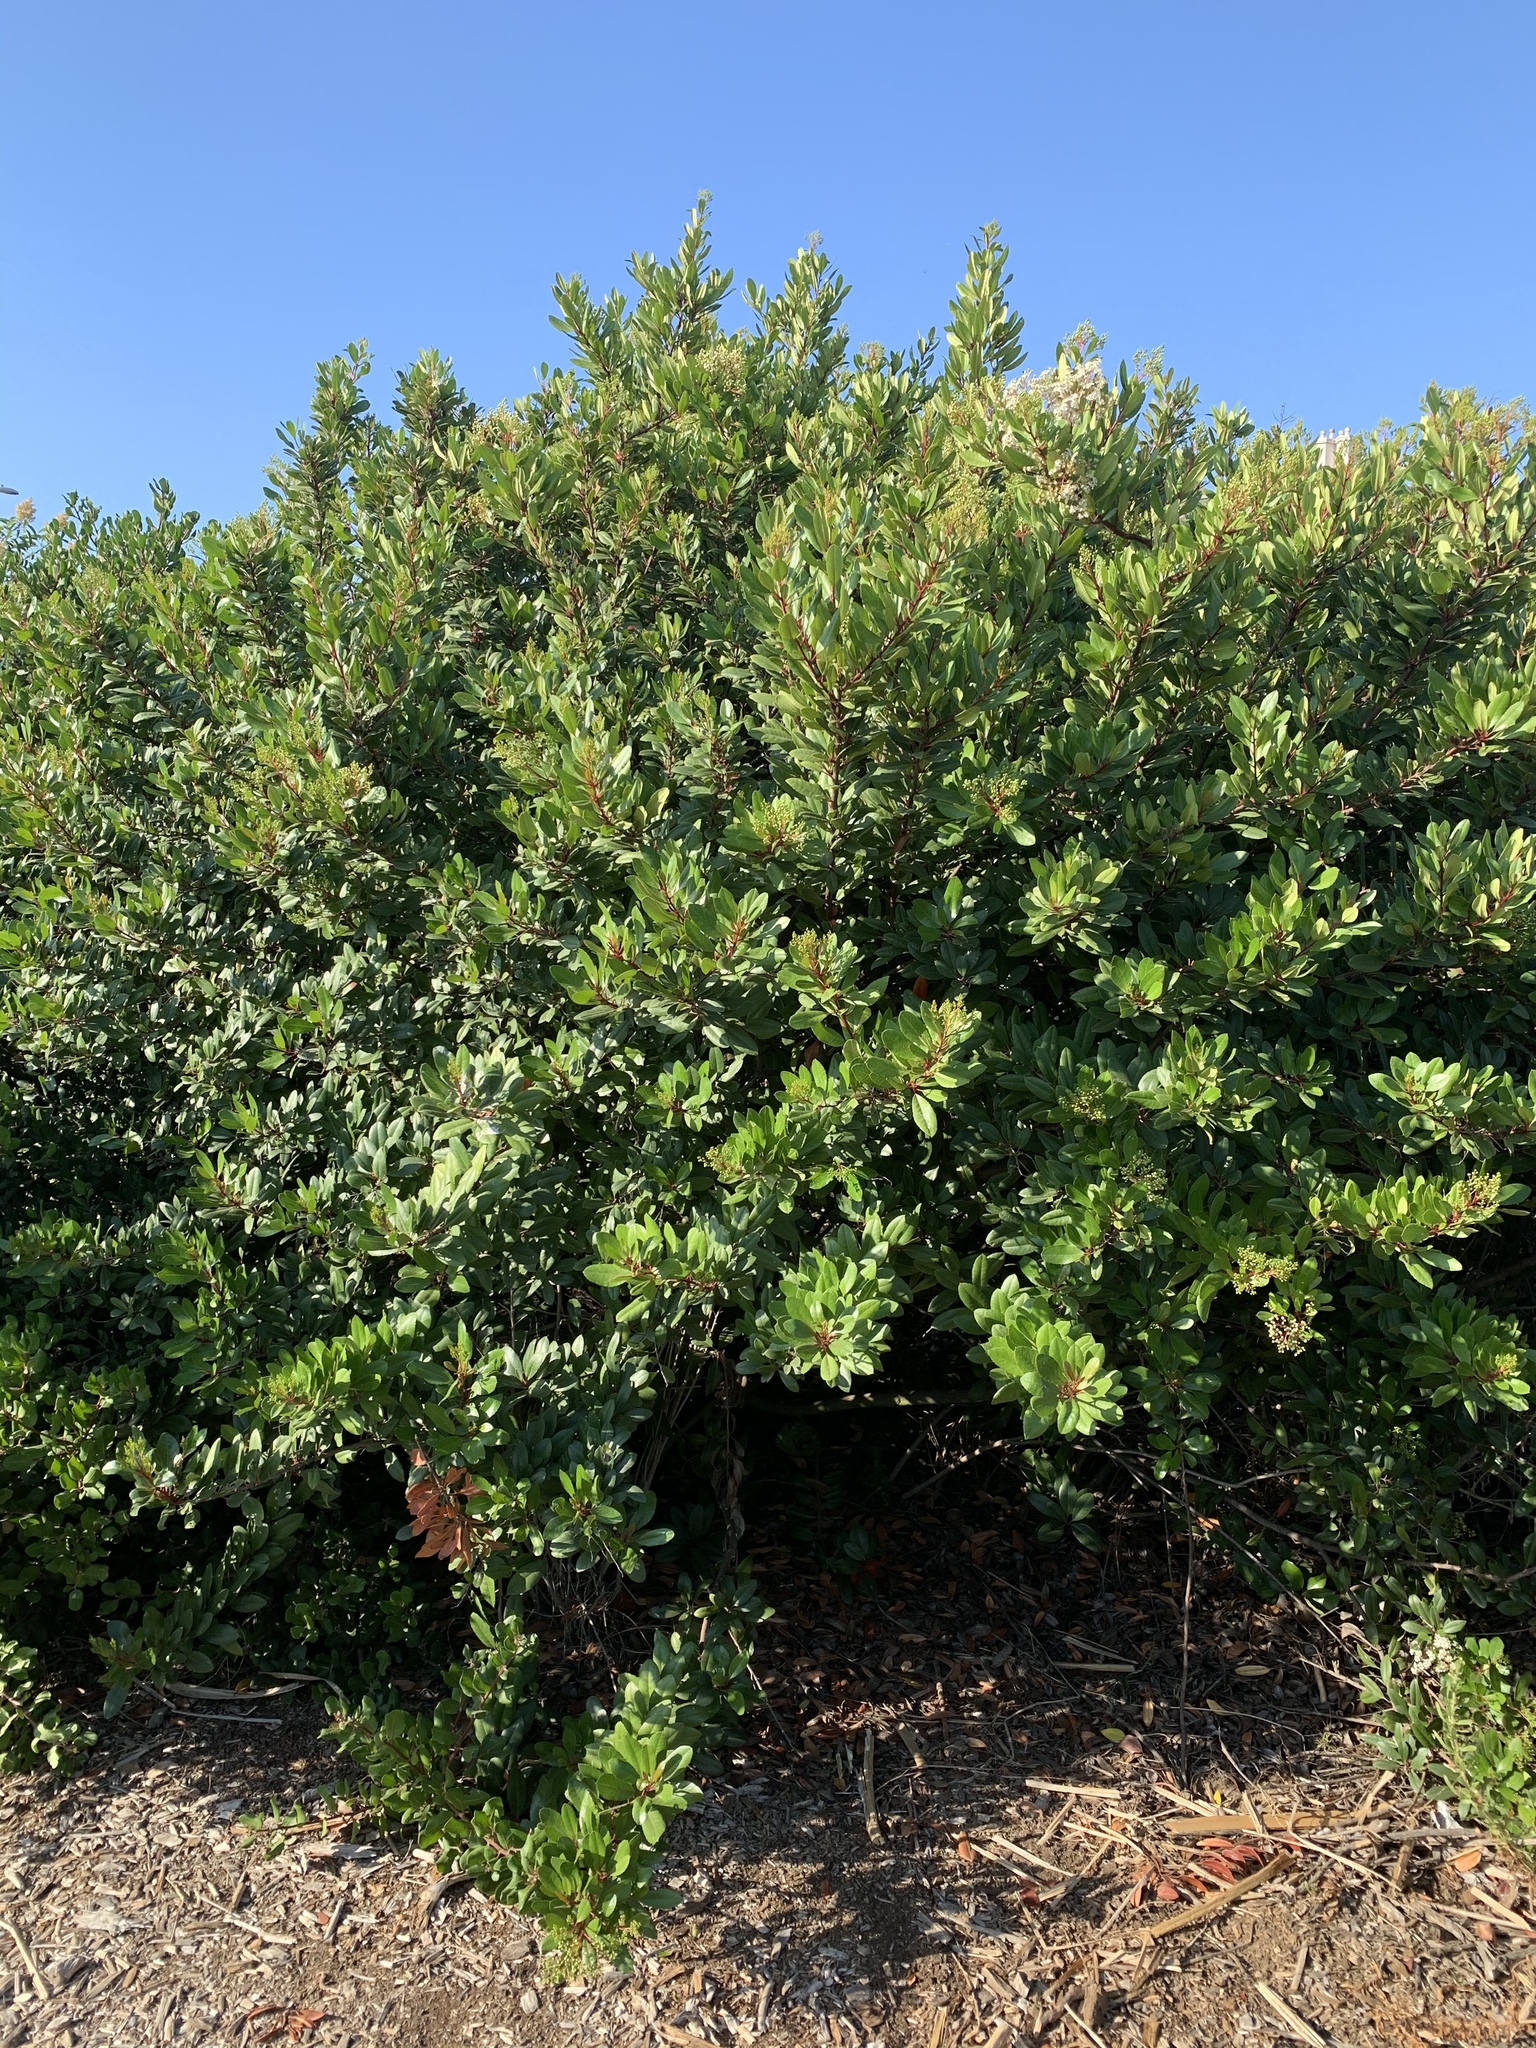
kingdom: Plantae
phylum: Tracheophyta
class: Magnoliopsida
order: Rosales
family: Rosaceae
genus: Heteromeles
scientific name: Heteromeles arbutifolia
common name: California-holly
